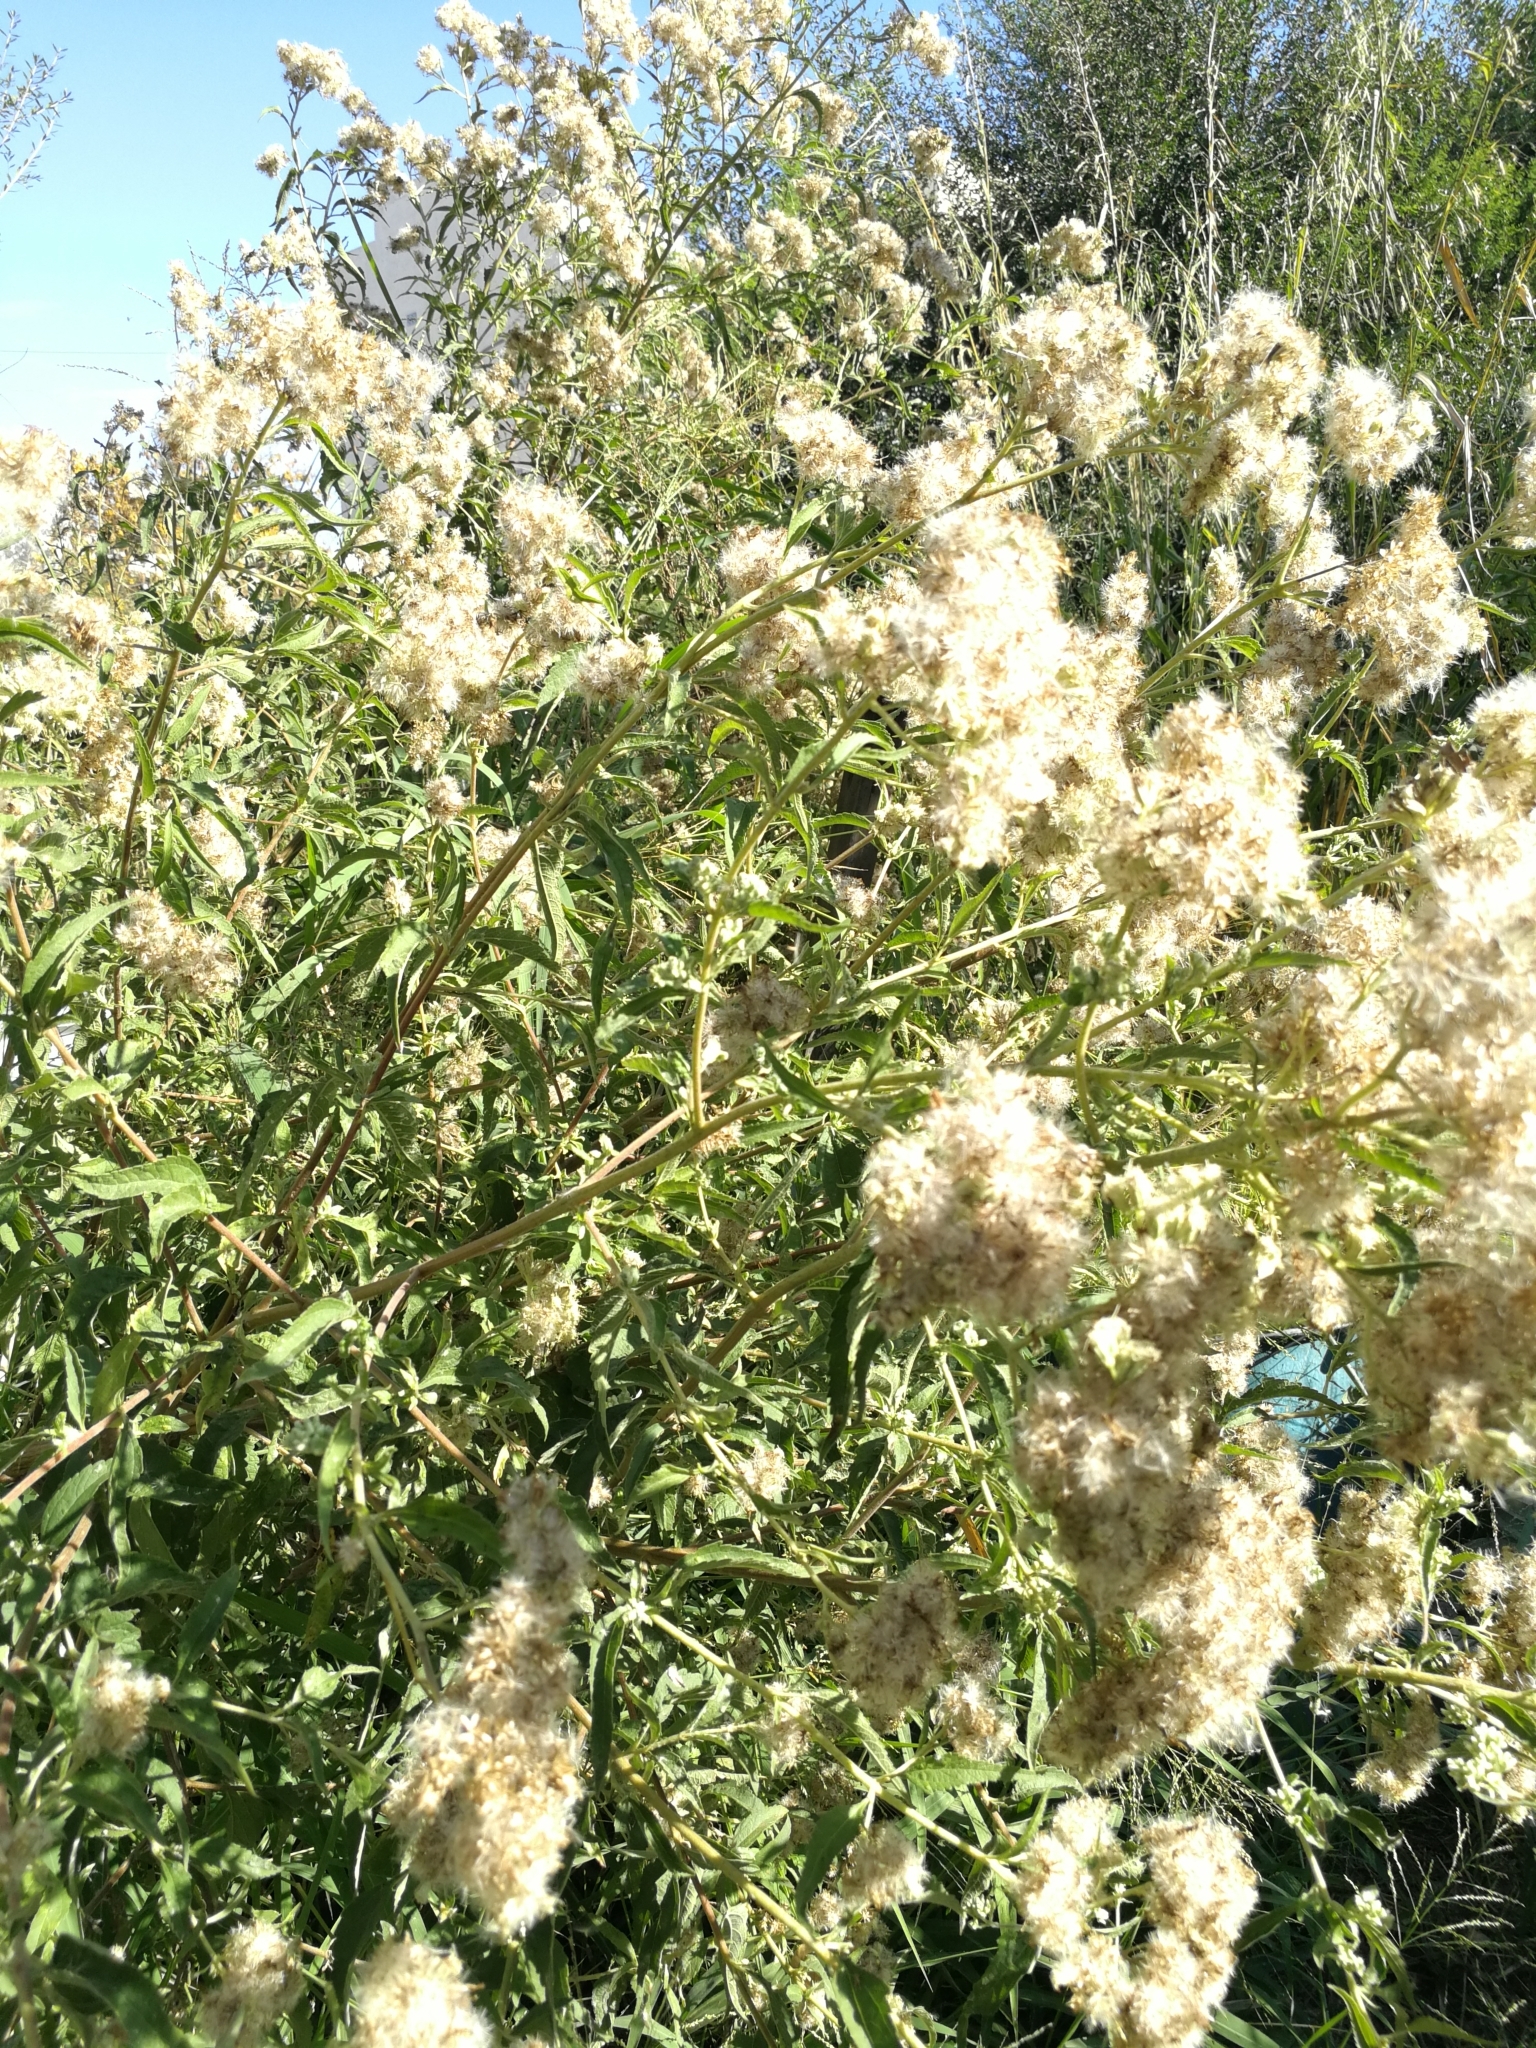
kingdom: Plantae
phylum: Tracheophyta
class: Magnoliopsida
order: Asterales
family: Asteraceae
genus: Austroeupatorium
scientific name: Austroeupatorium inulifolium
